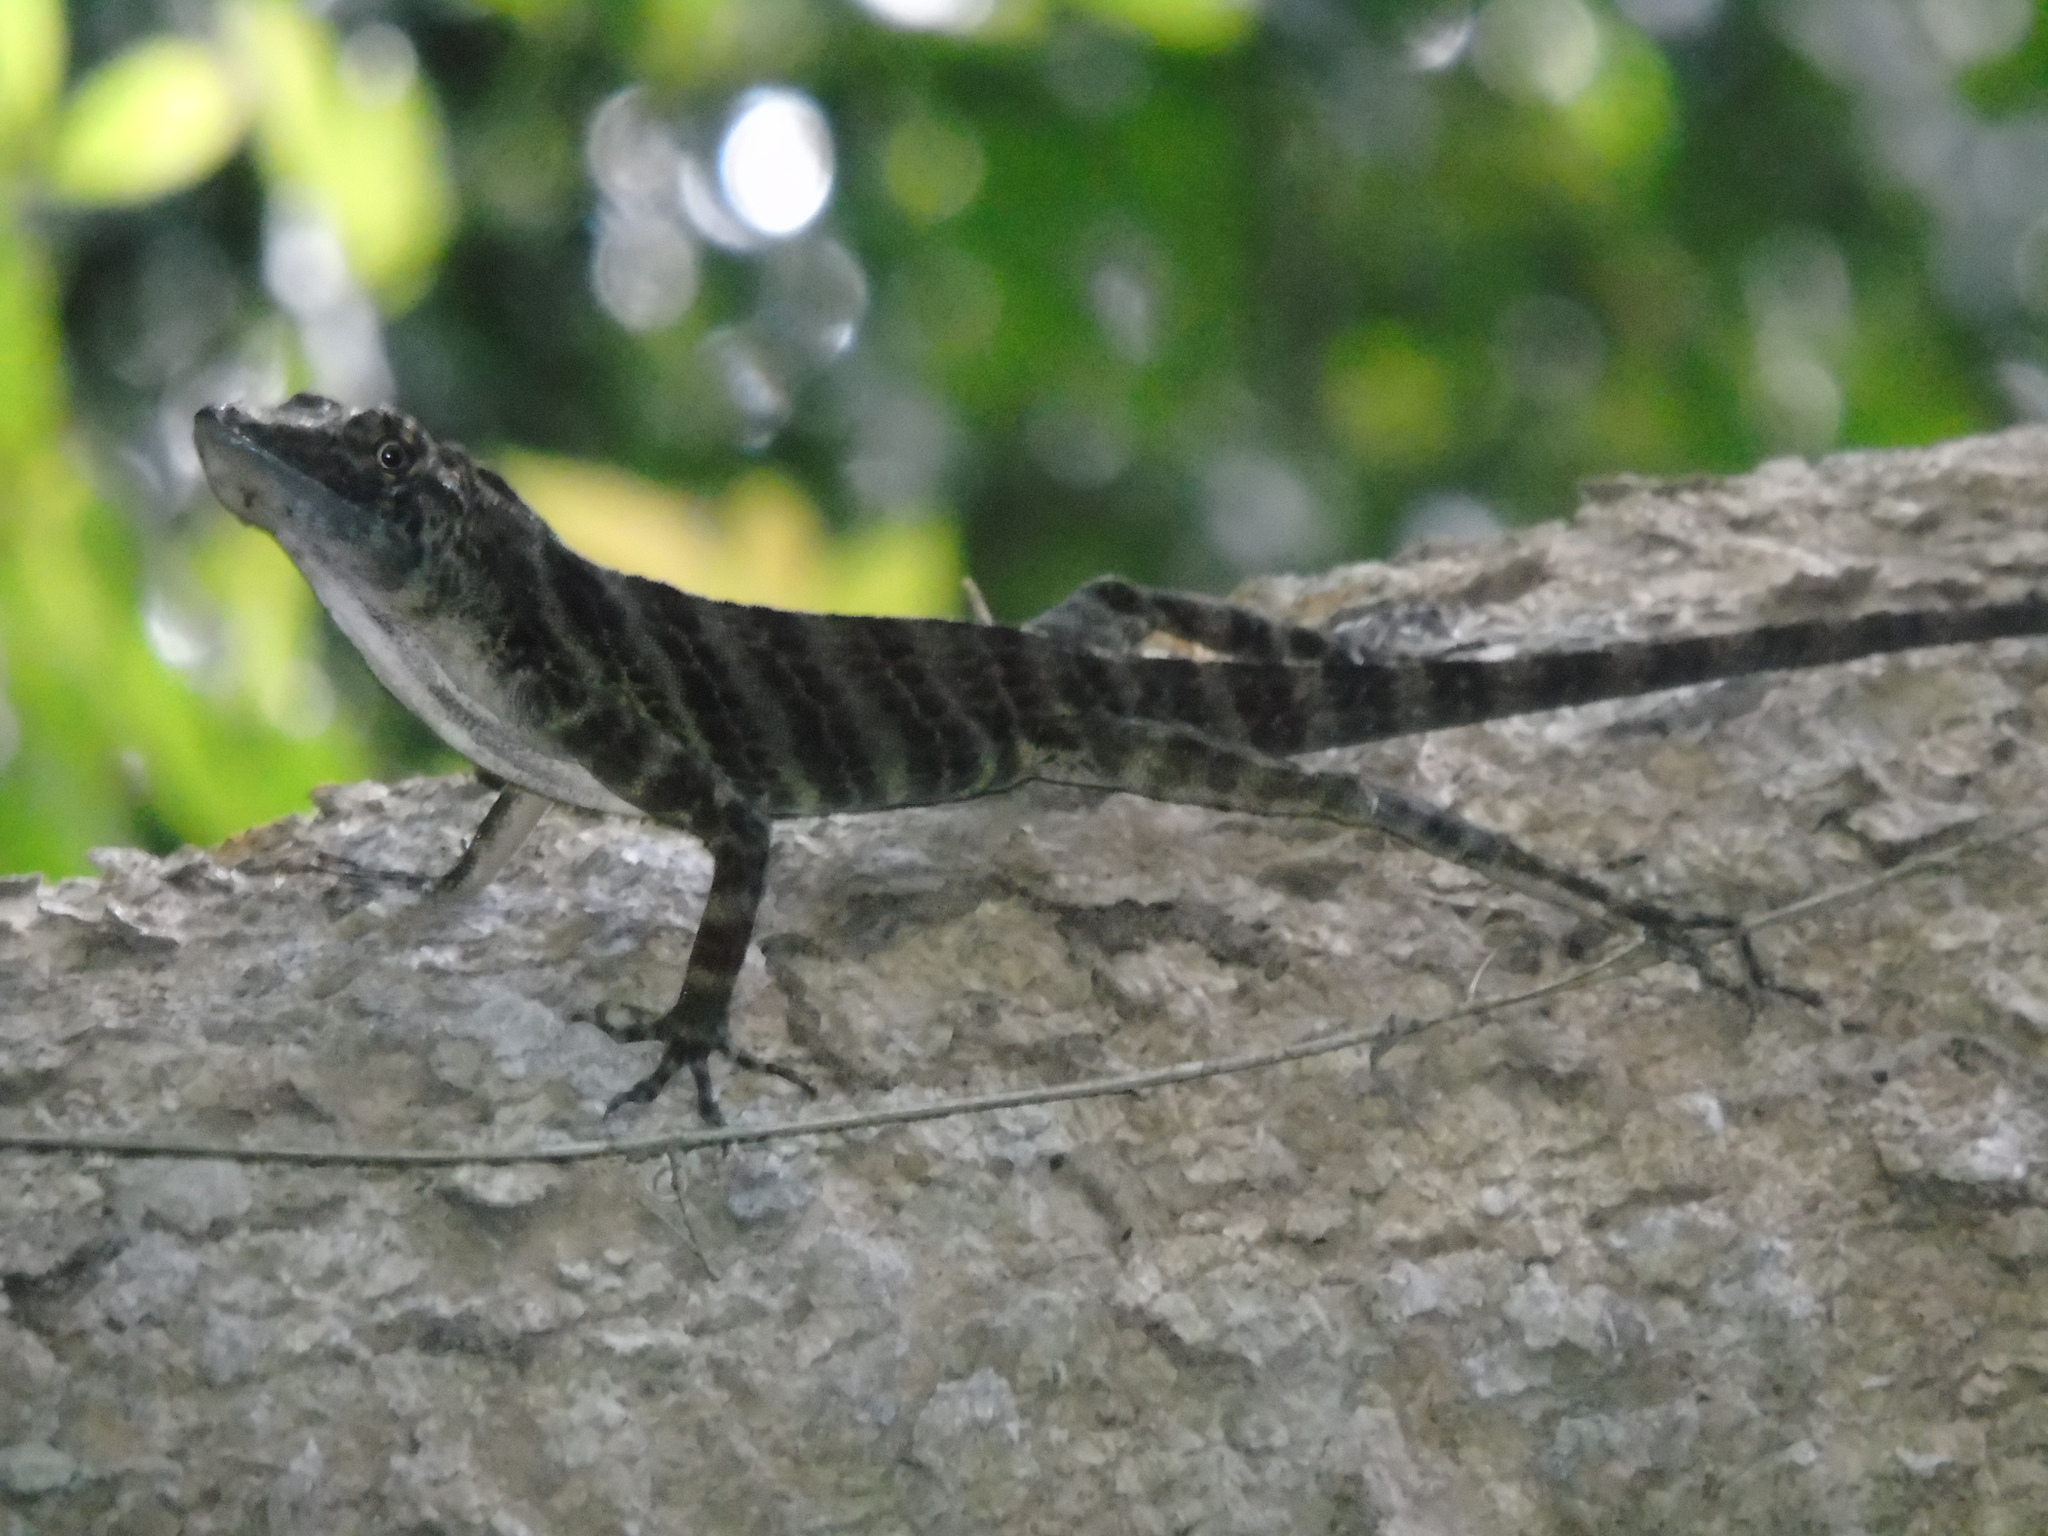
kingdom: Animalia
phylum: Chordata
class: Squamata
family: Dactyloidae
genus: Anolis
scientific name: Anolis frenatus
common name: Bridled anole
